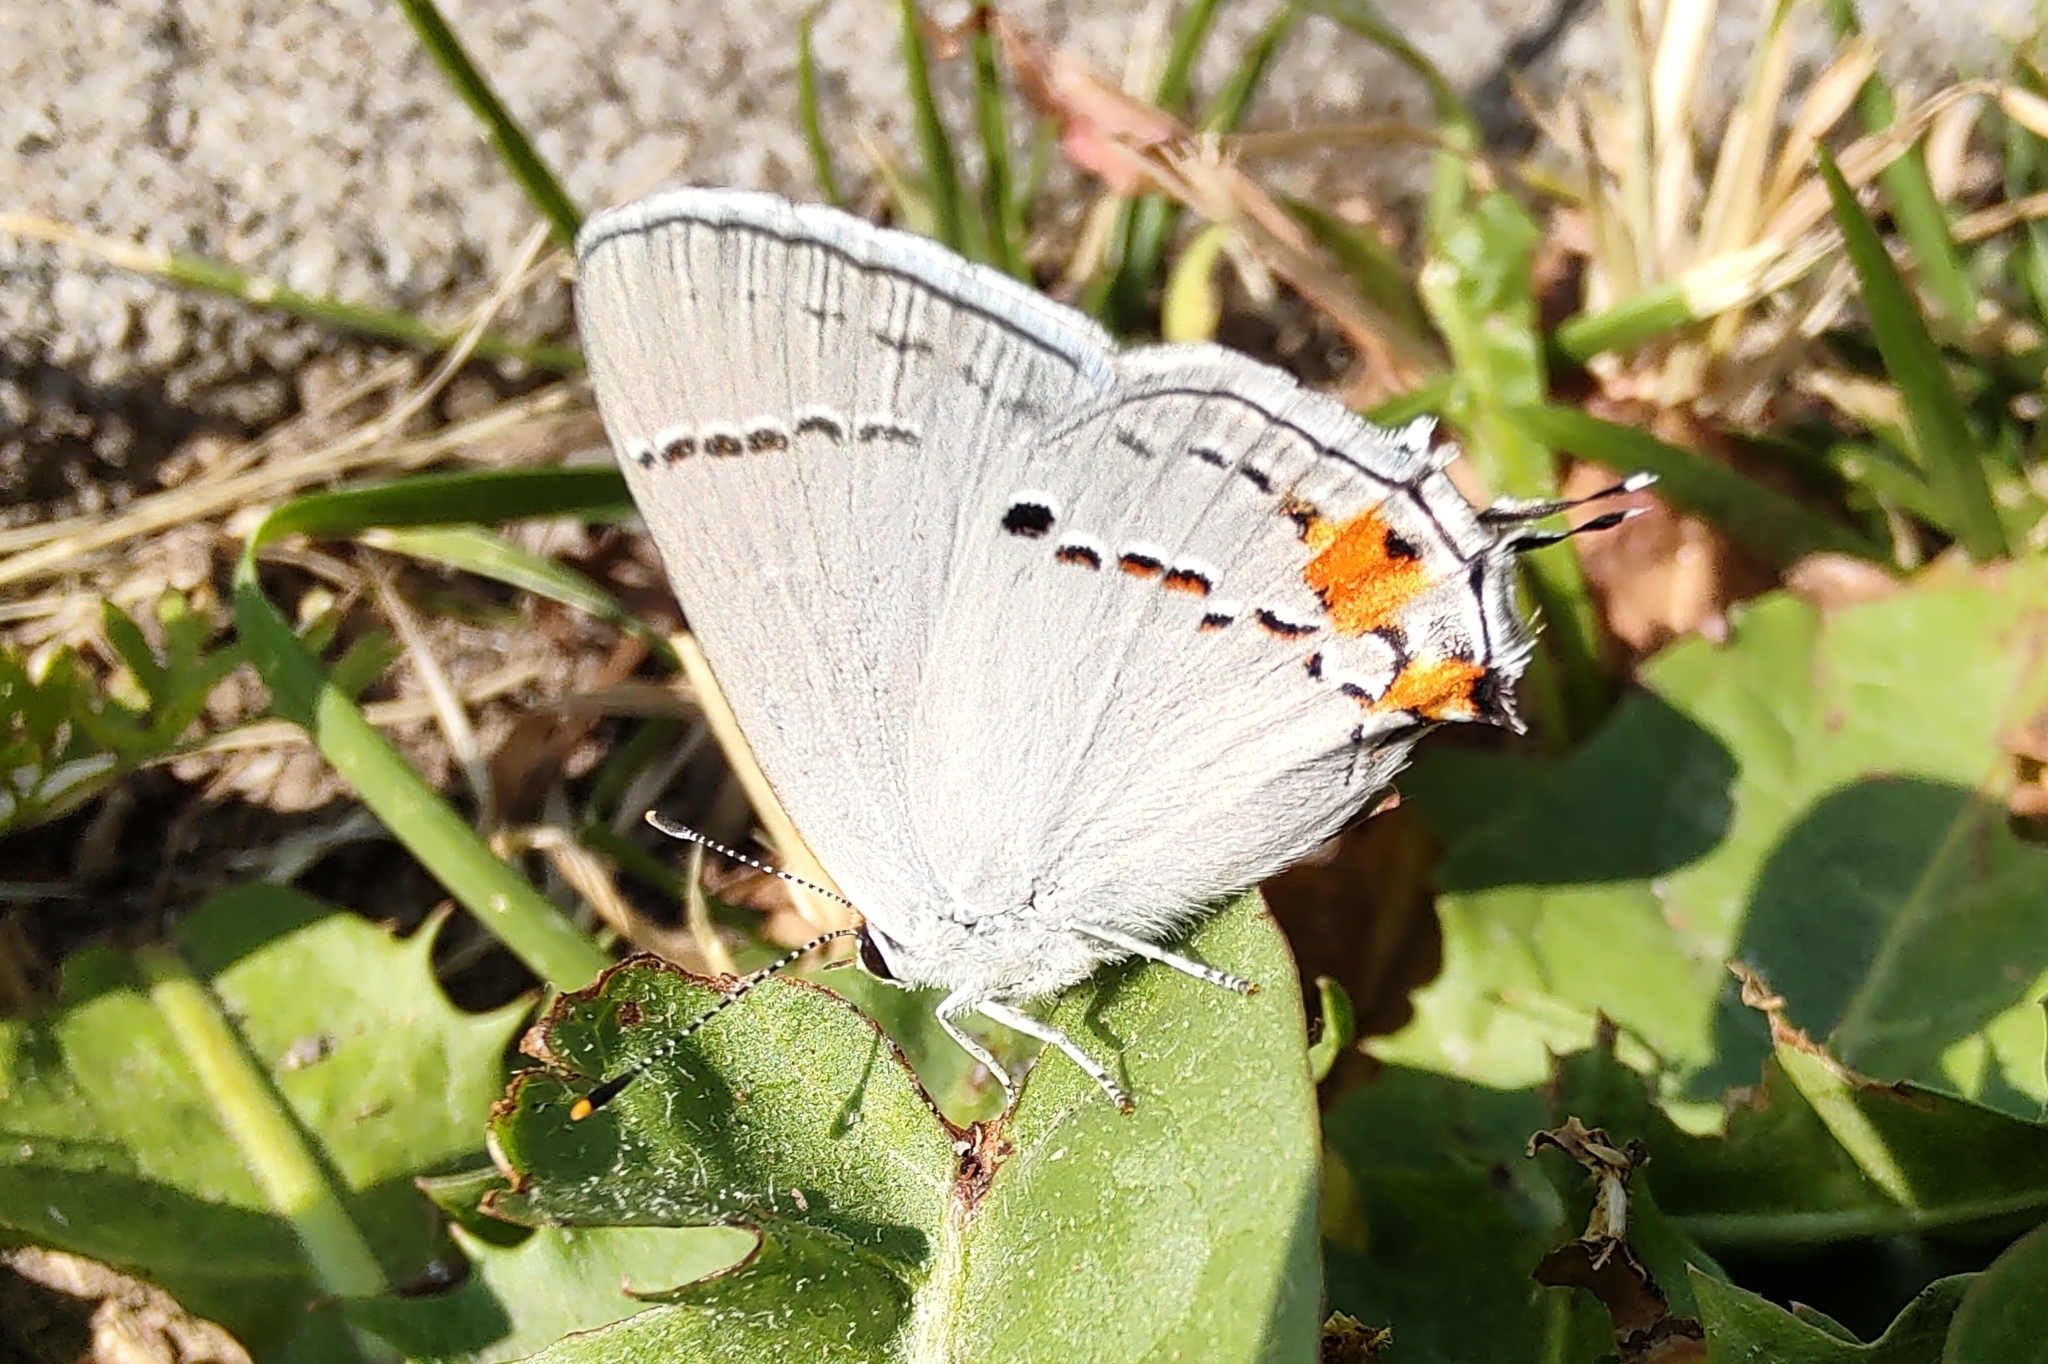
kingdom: Animalia
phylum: Arthropoda
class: Insecta
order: Lepidoptera
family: Lycaenidae
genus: Strymon
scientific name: Strymon melinus
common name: Gray hairstreak
